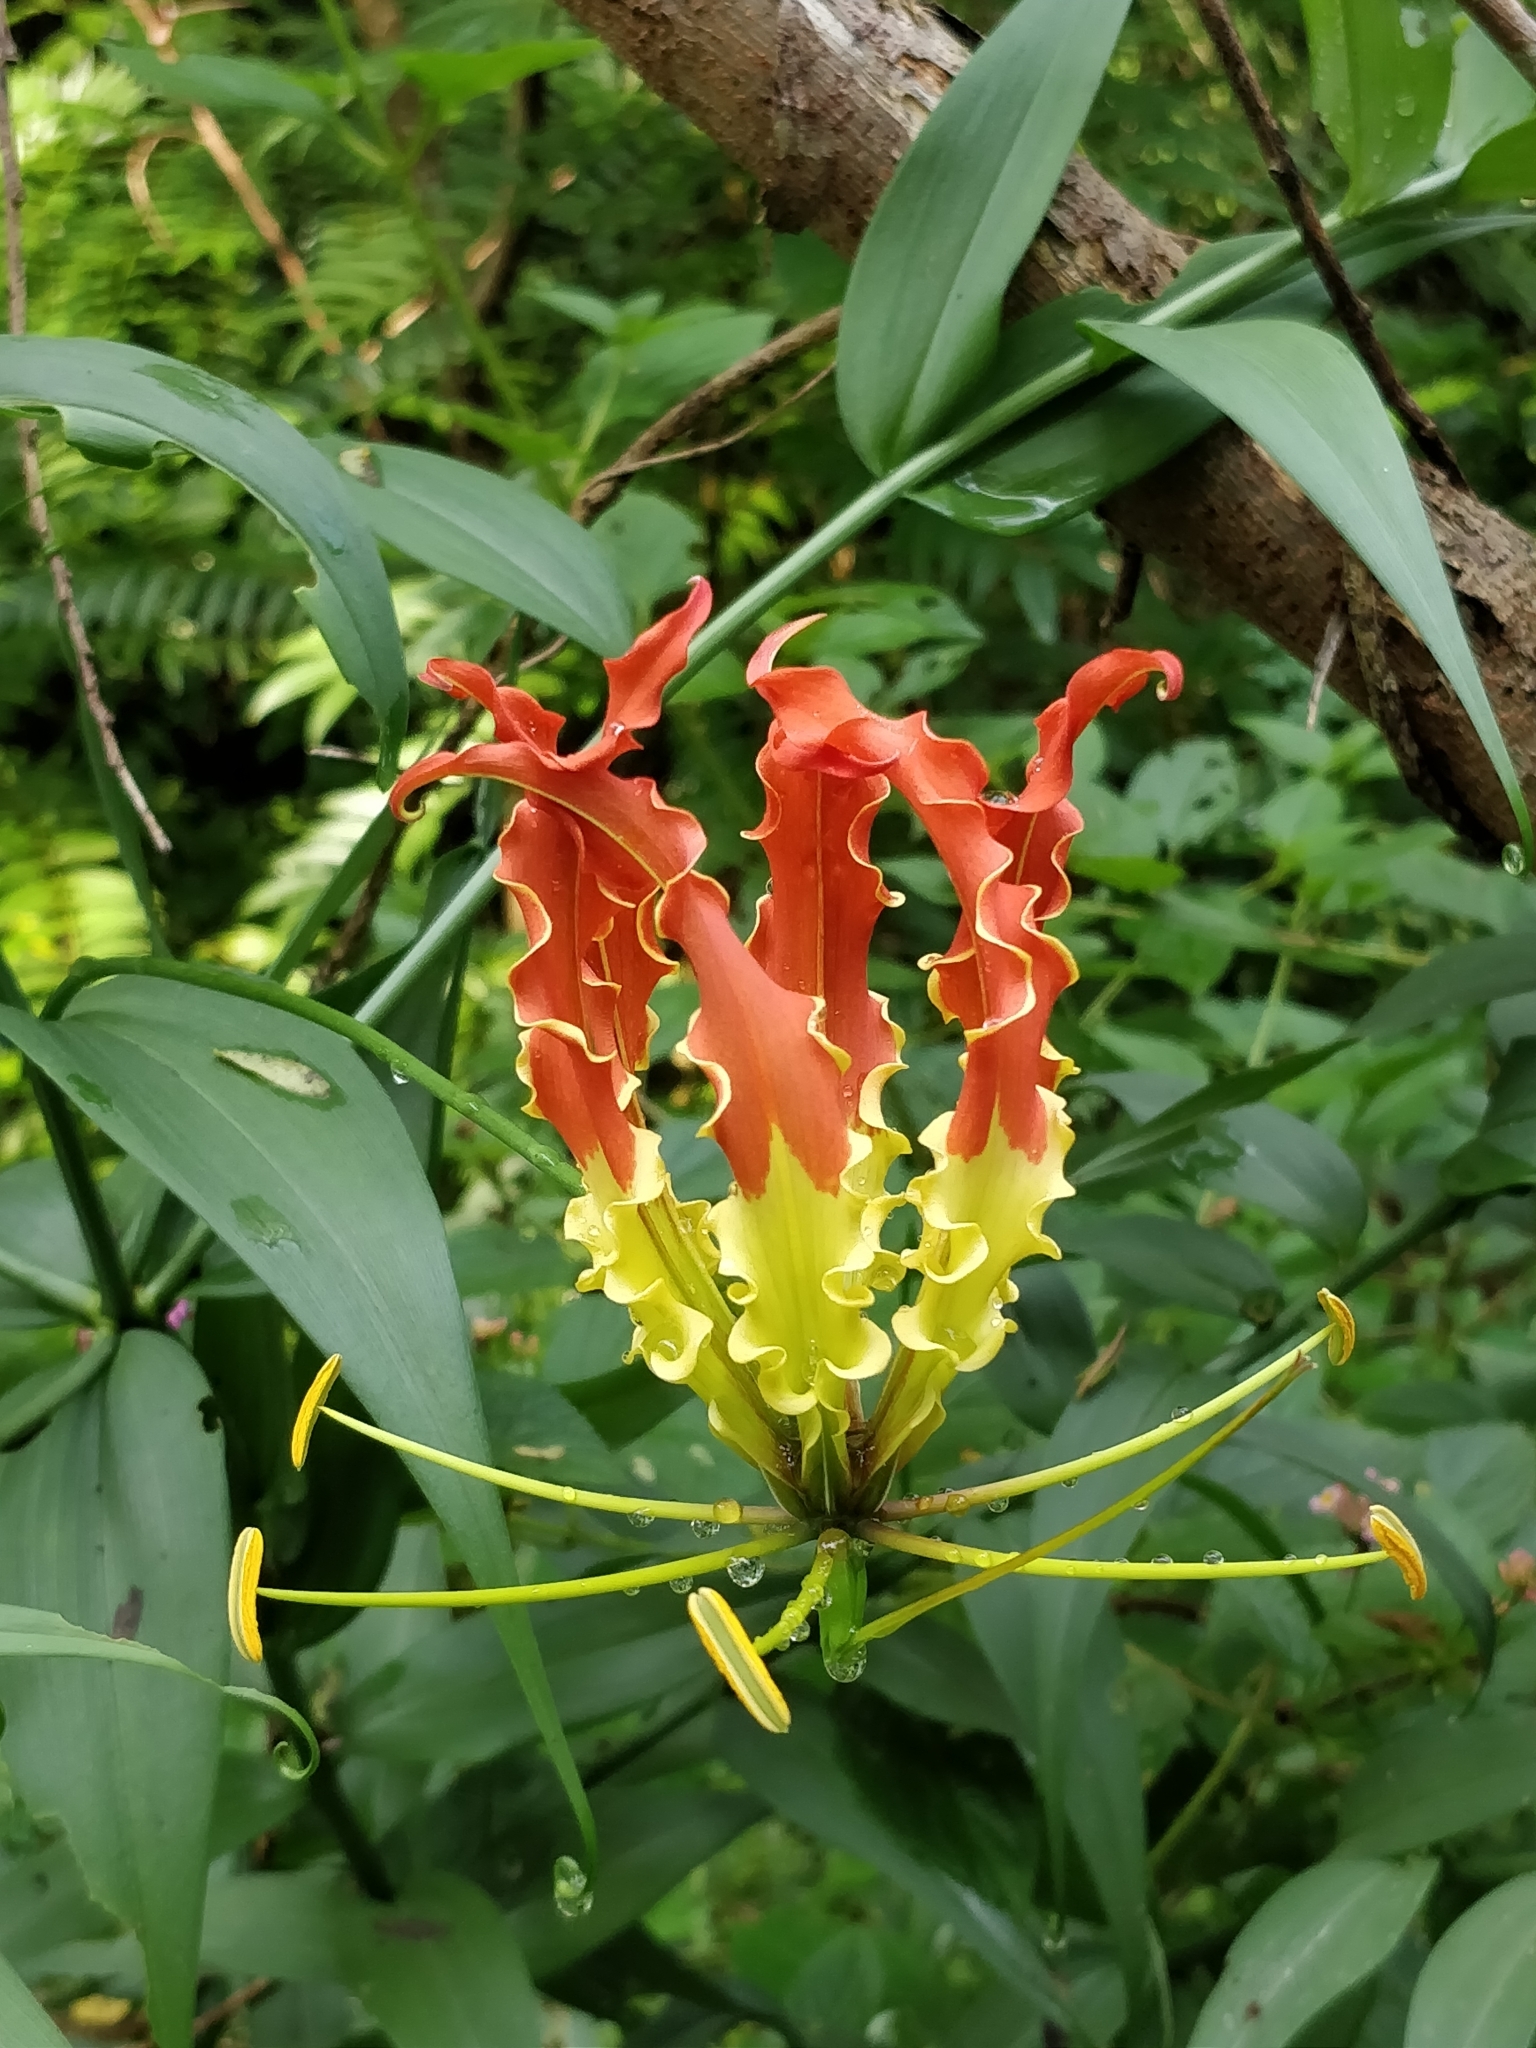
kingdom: Plantae
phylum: Tracheophyta
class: Liliopsida
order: Liliales
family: Colchicaceae
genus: Gloriosa
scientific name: Gloriosa superba
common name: Flame lily
